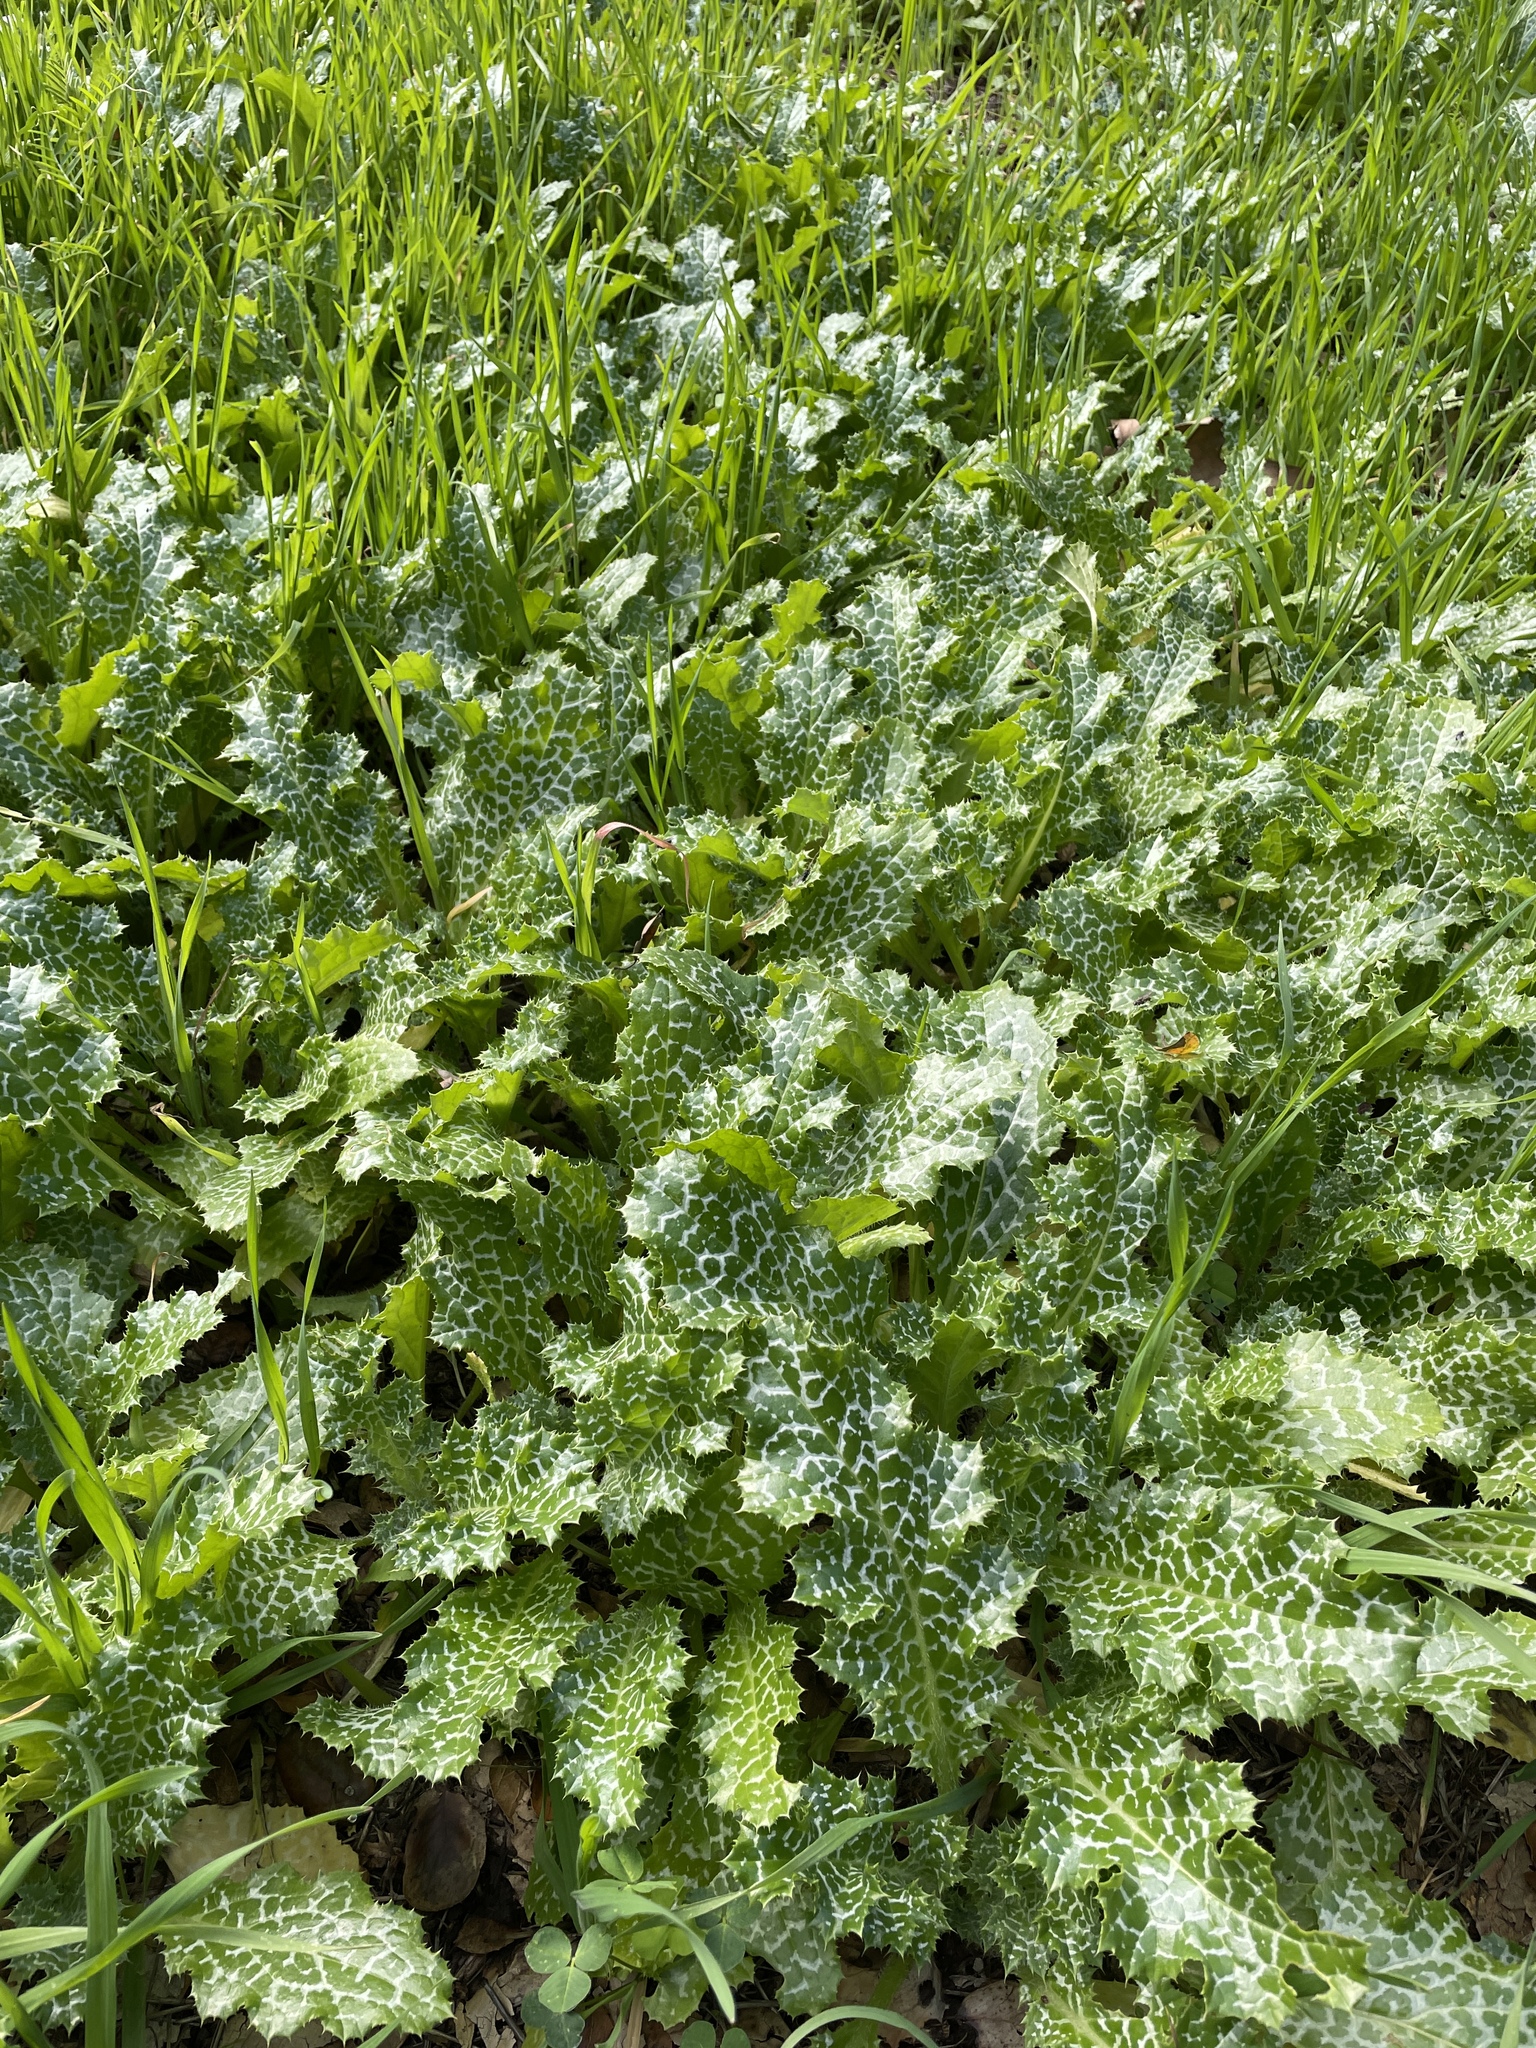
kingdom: Plantae
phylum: Tracheophyta
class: Magnoliopsida
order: Asterales
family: Asteraceae
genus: Silybum
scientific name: Silybum marianum
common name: Milk thistle
